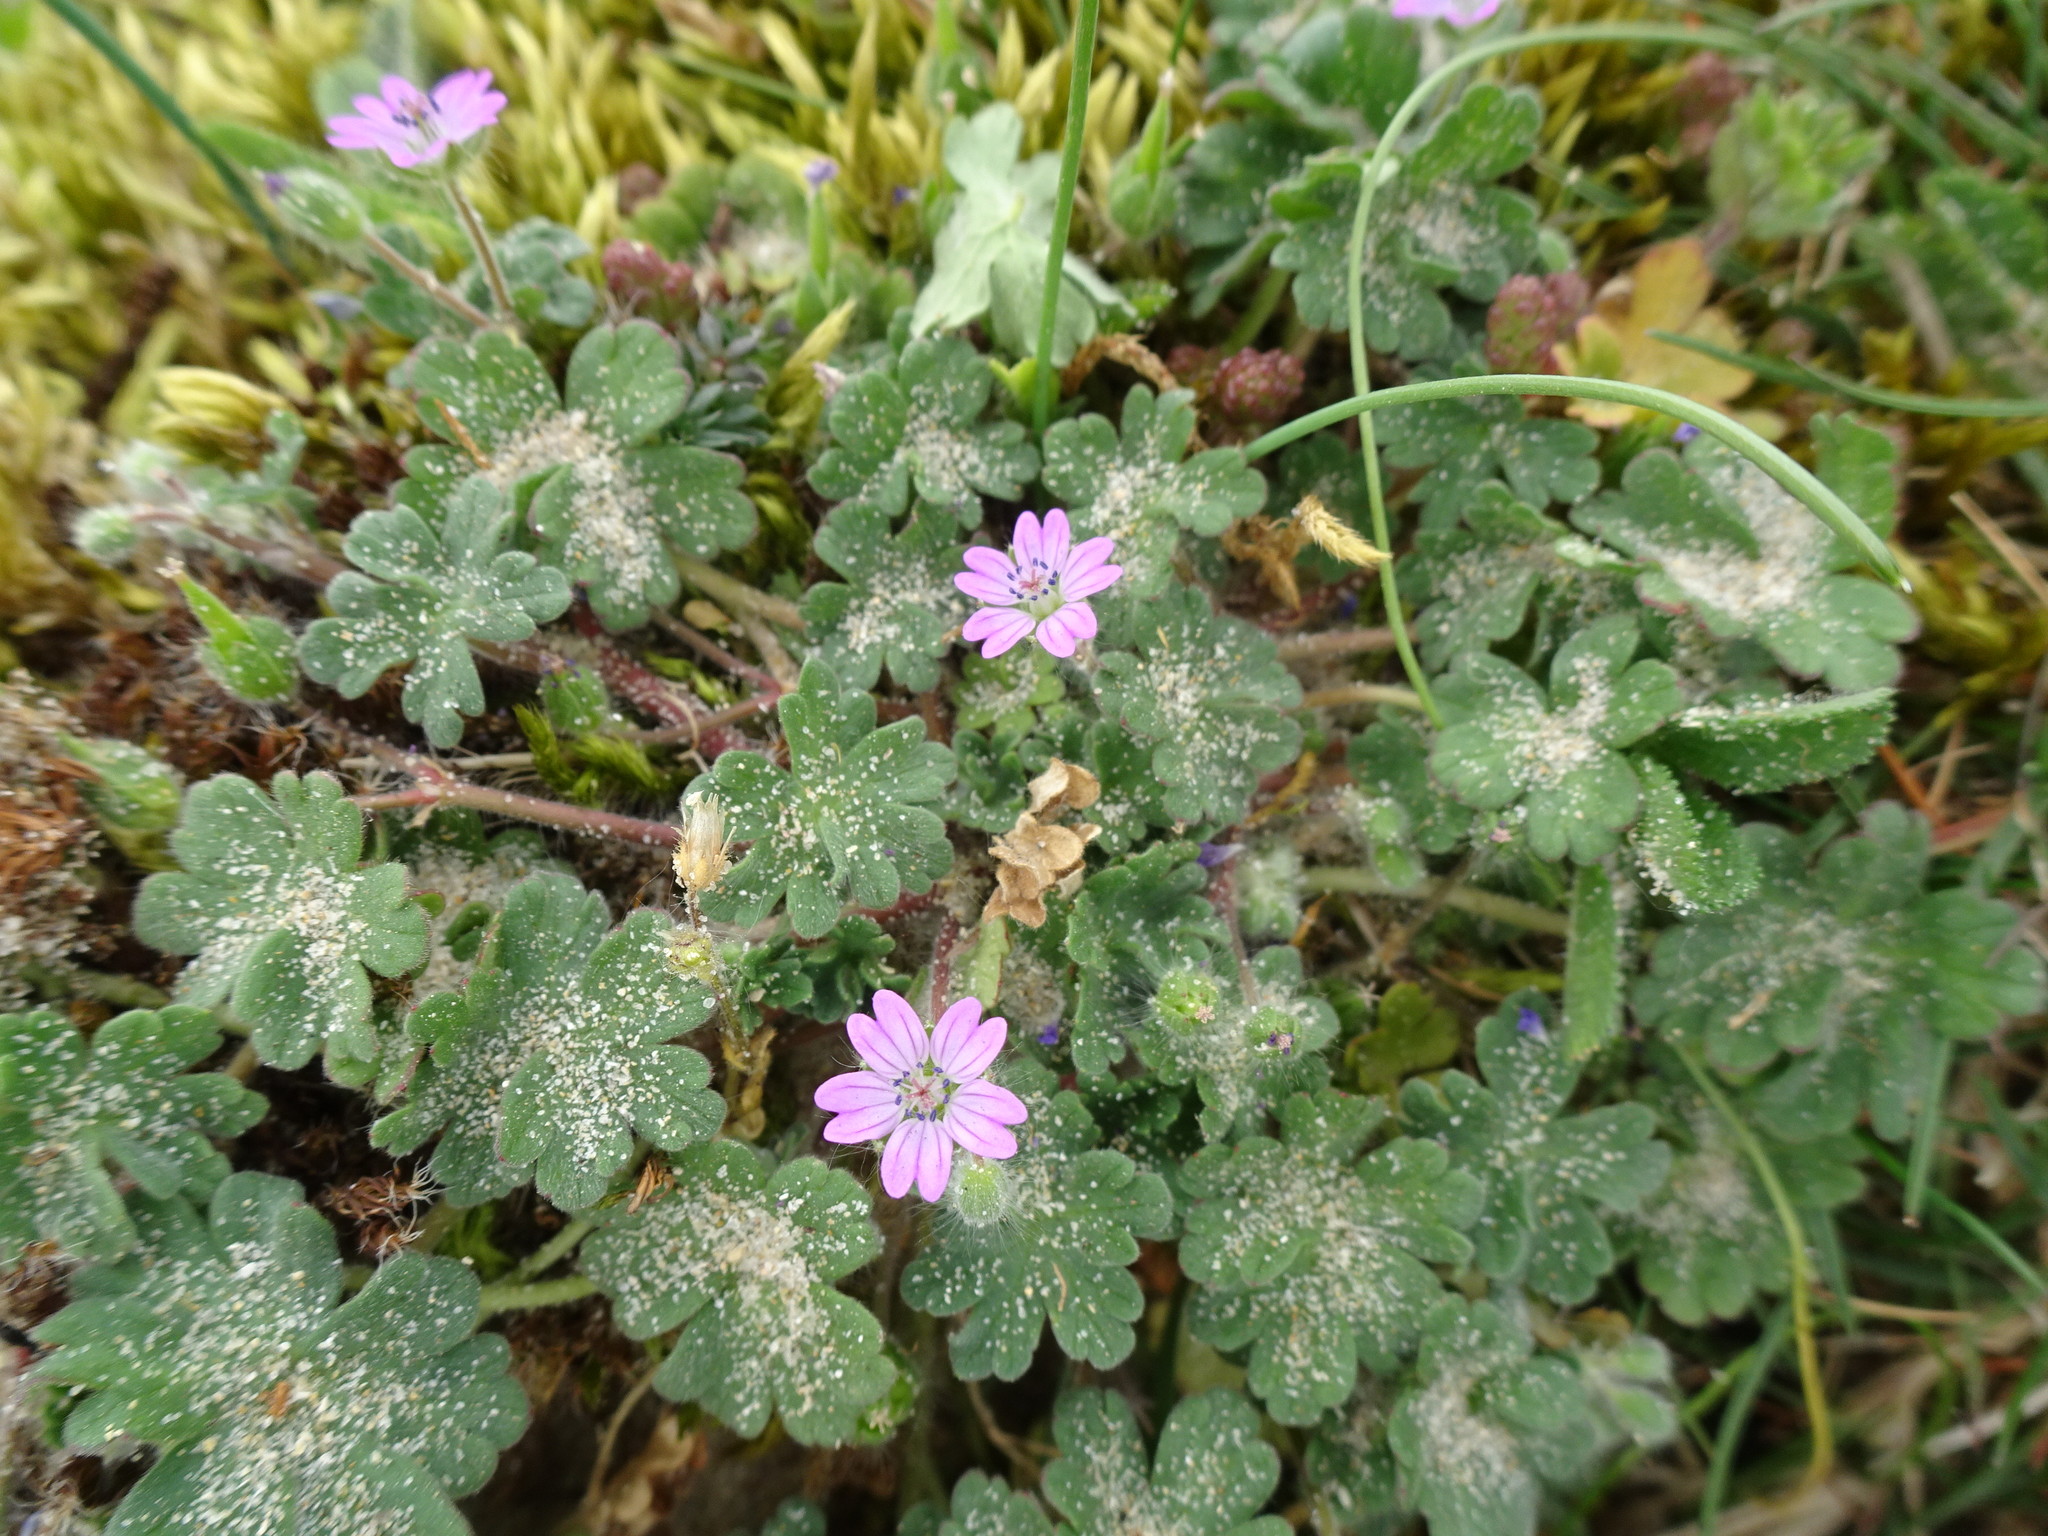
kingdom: Plantae
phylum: Tracheophyta
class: Magnoliopsida
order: Geraniales
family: Geraniaceae
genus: Geranium
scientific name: Geranium molle
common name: Dove's-foot crane's-bill
